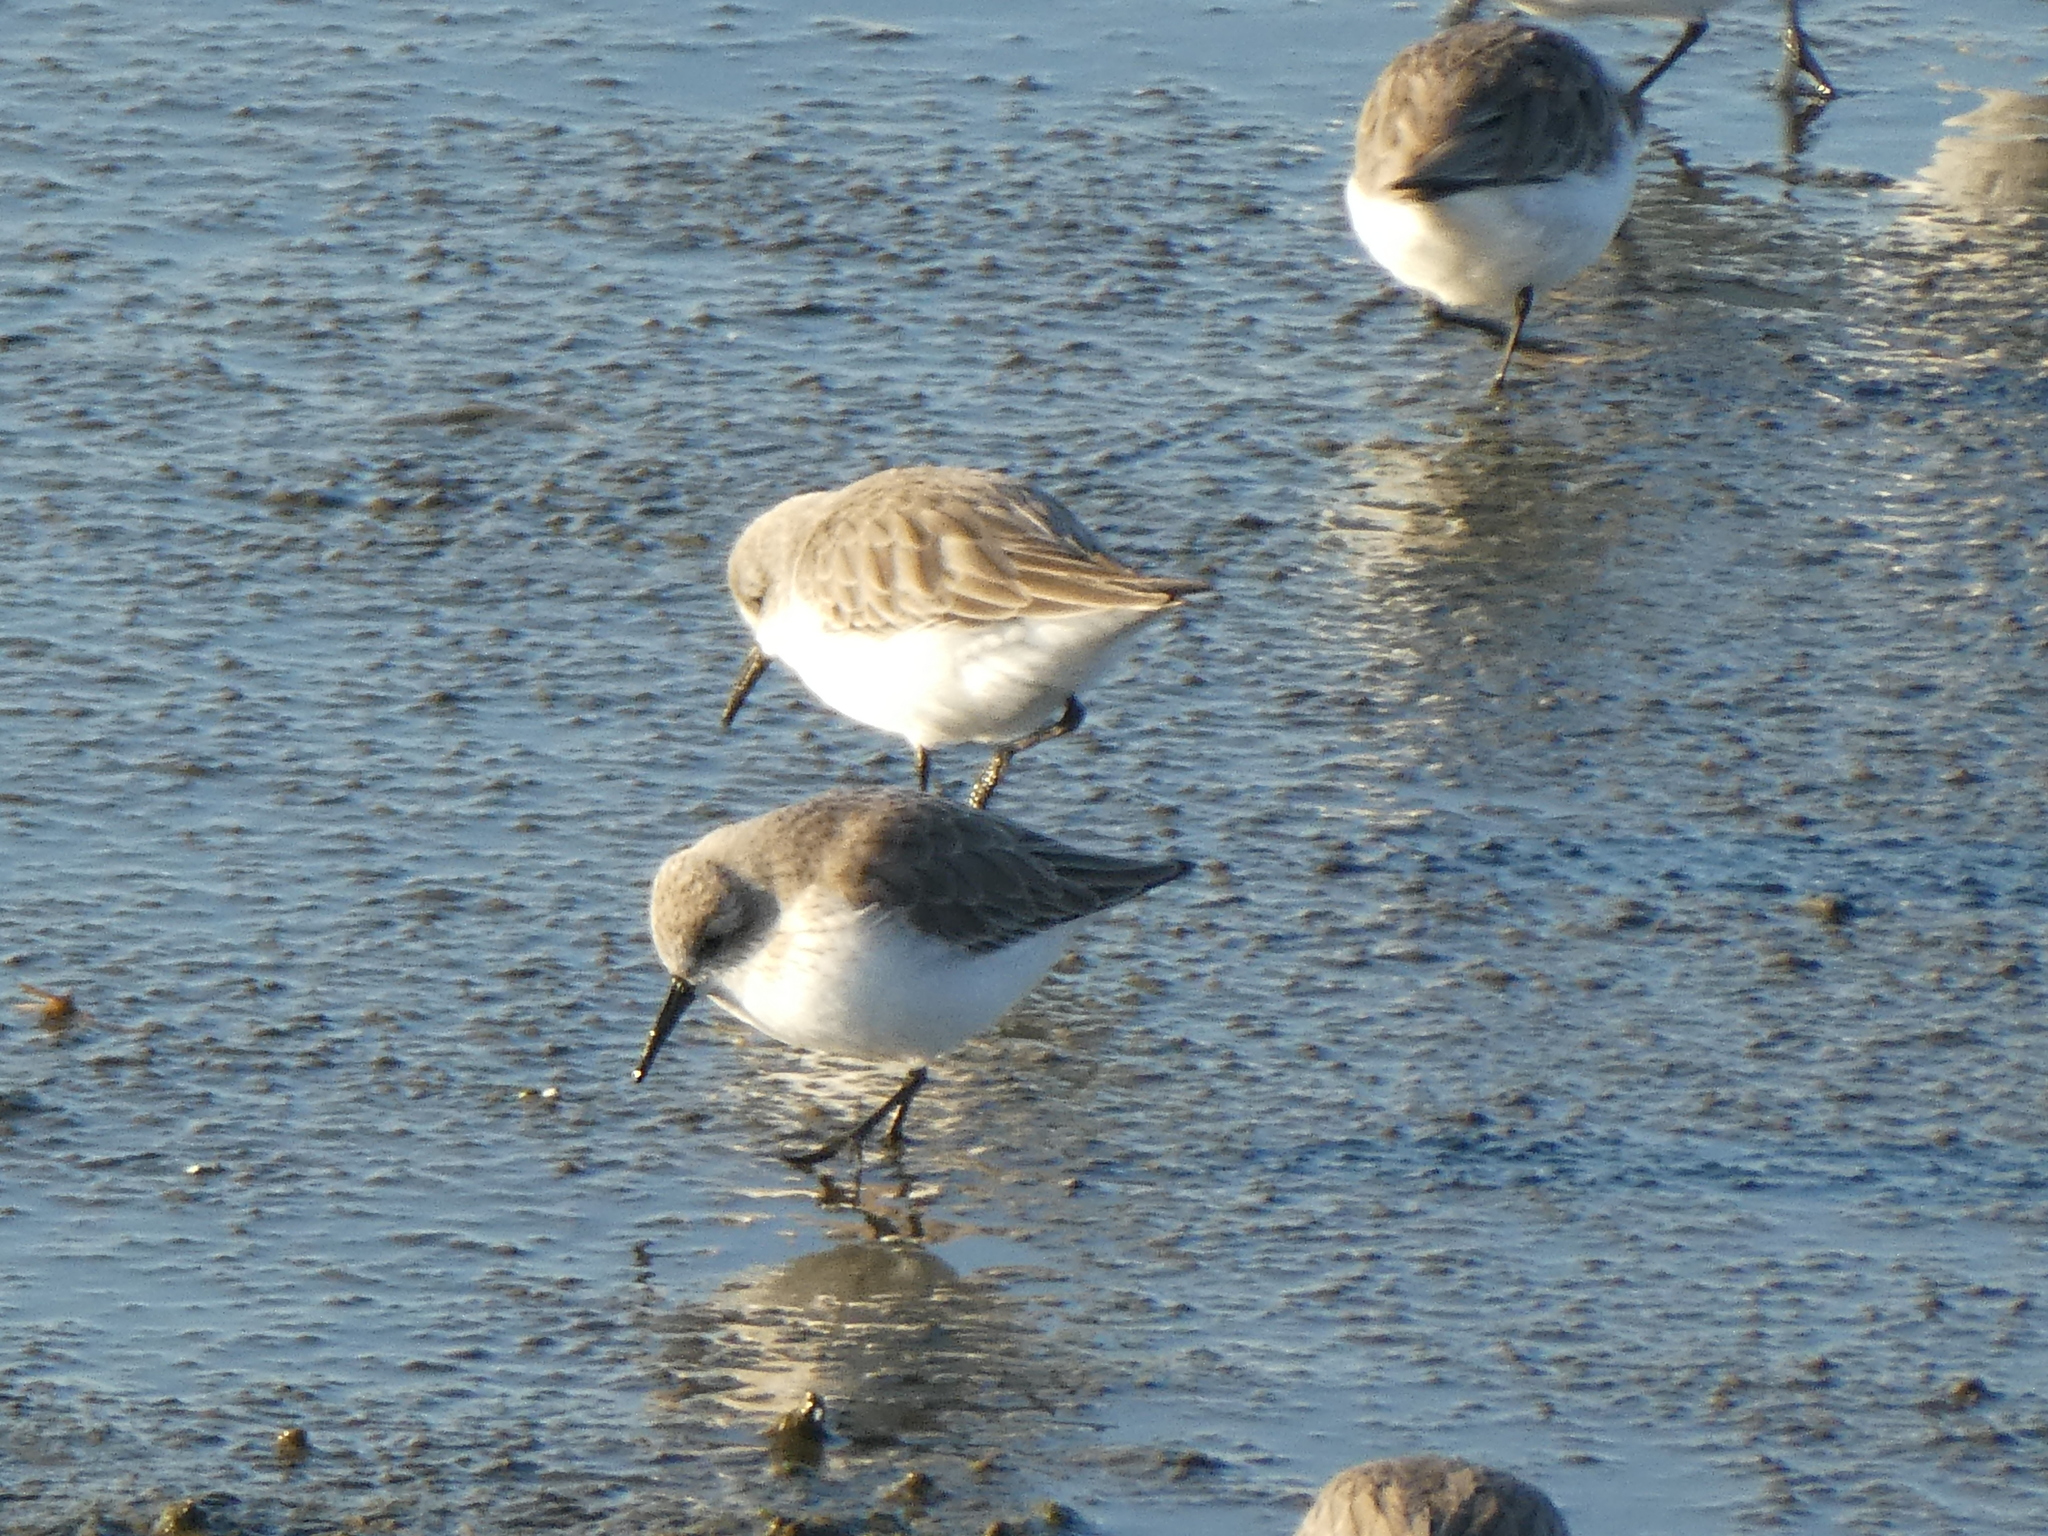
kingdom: Animalia
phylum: Chordata
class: Aves
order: Charadriiformes
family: Scolopacidae
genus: Calidris
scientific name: Calidris mauri
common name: Western sandpiper
